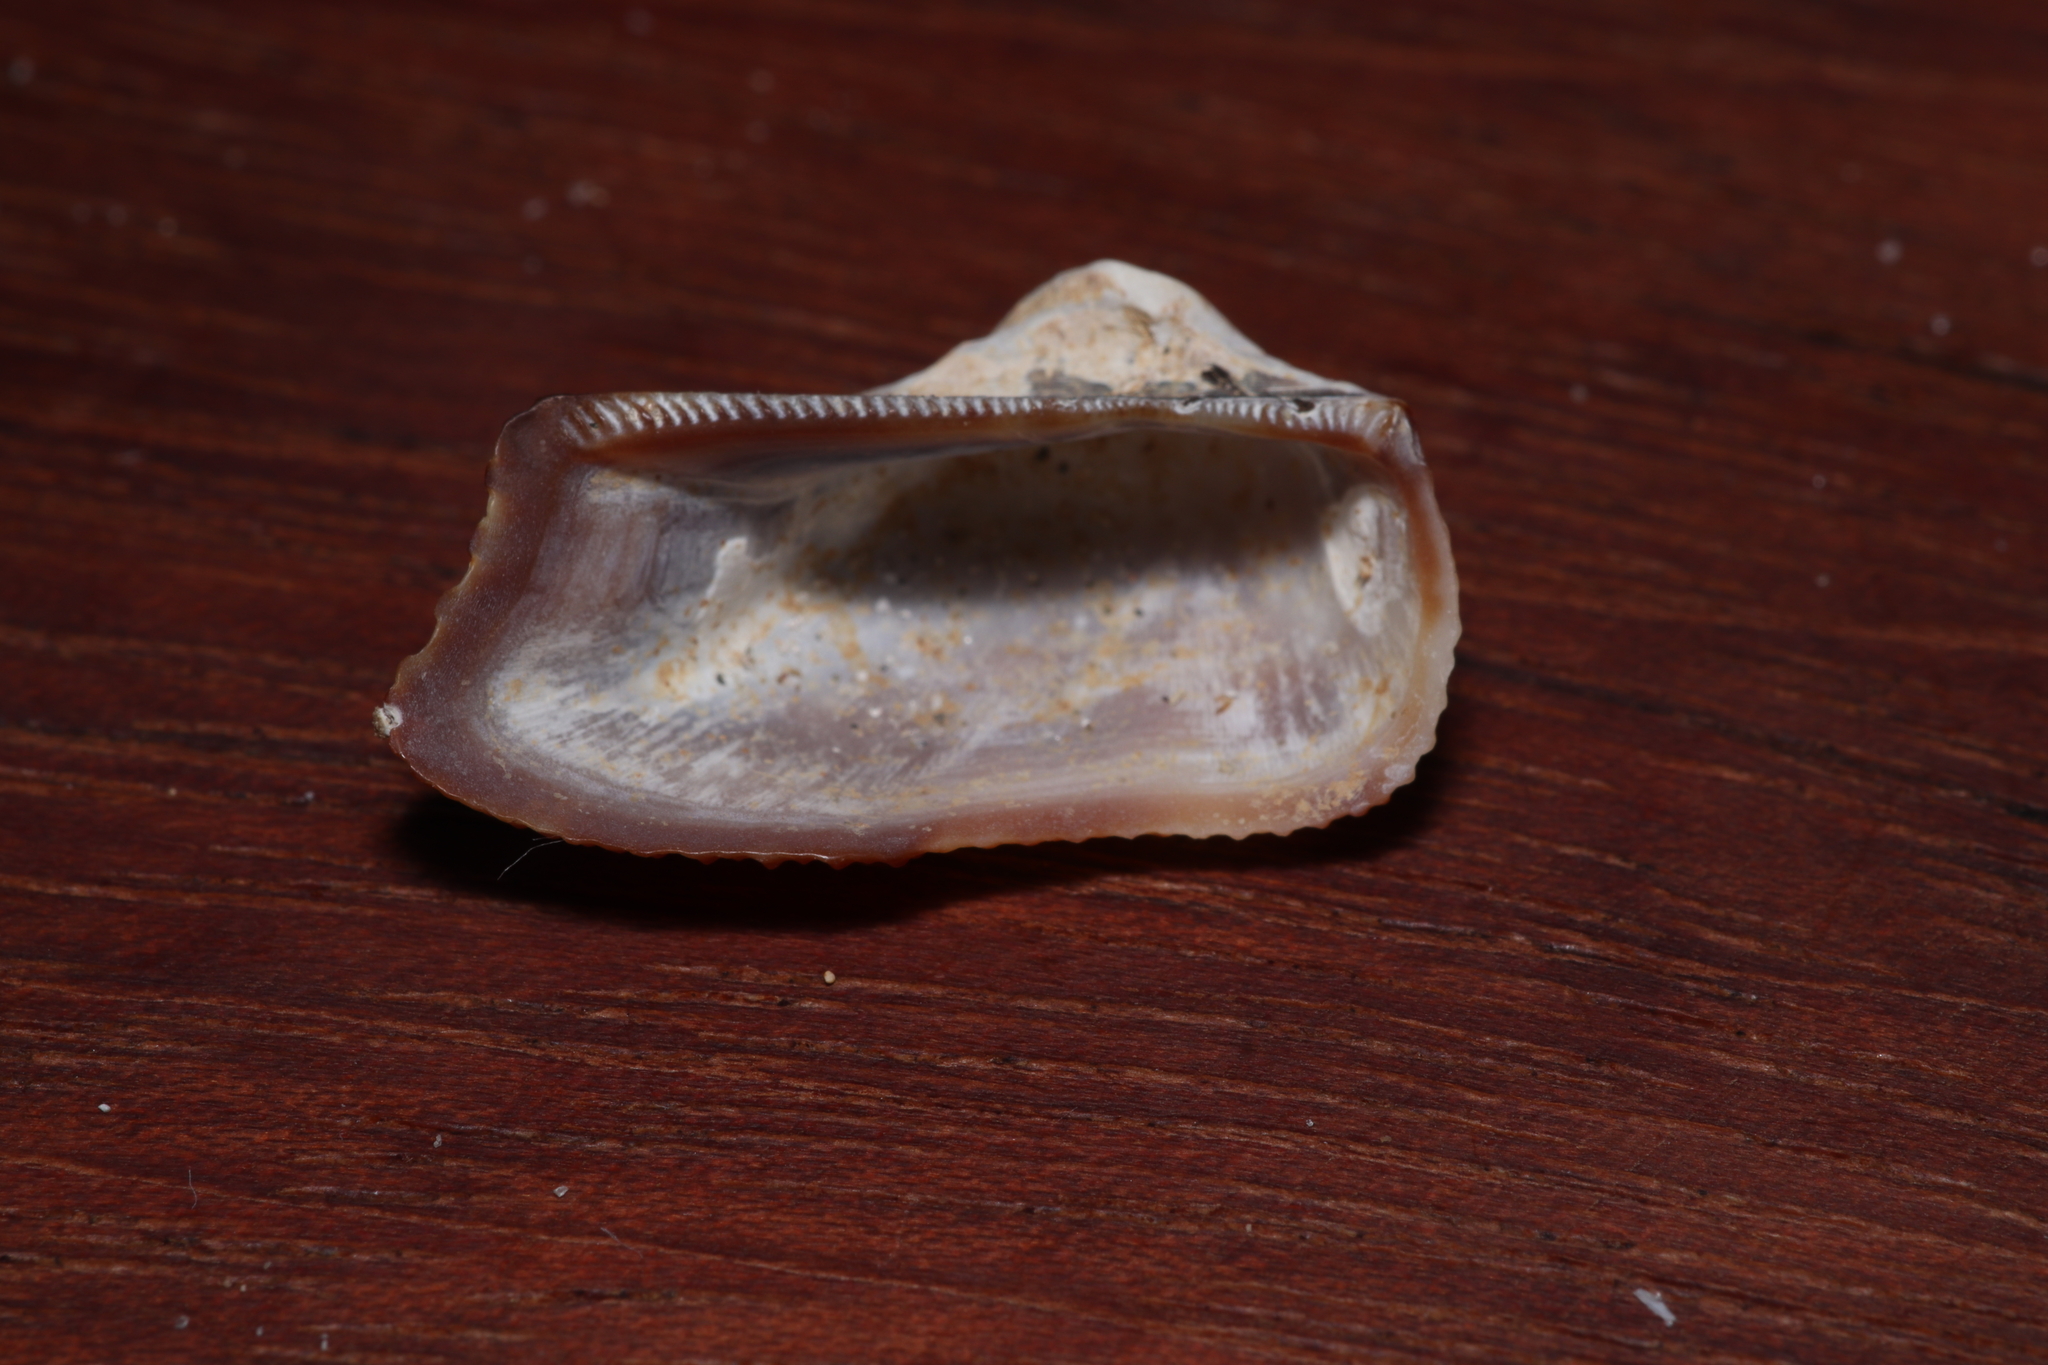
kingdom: Animalia
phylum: Mollusca
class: Bivalvia
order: Arcida
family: Arcidae
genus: Lamarcka
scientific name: Lamarcka imbricata
